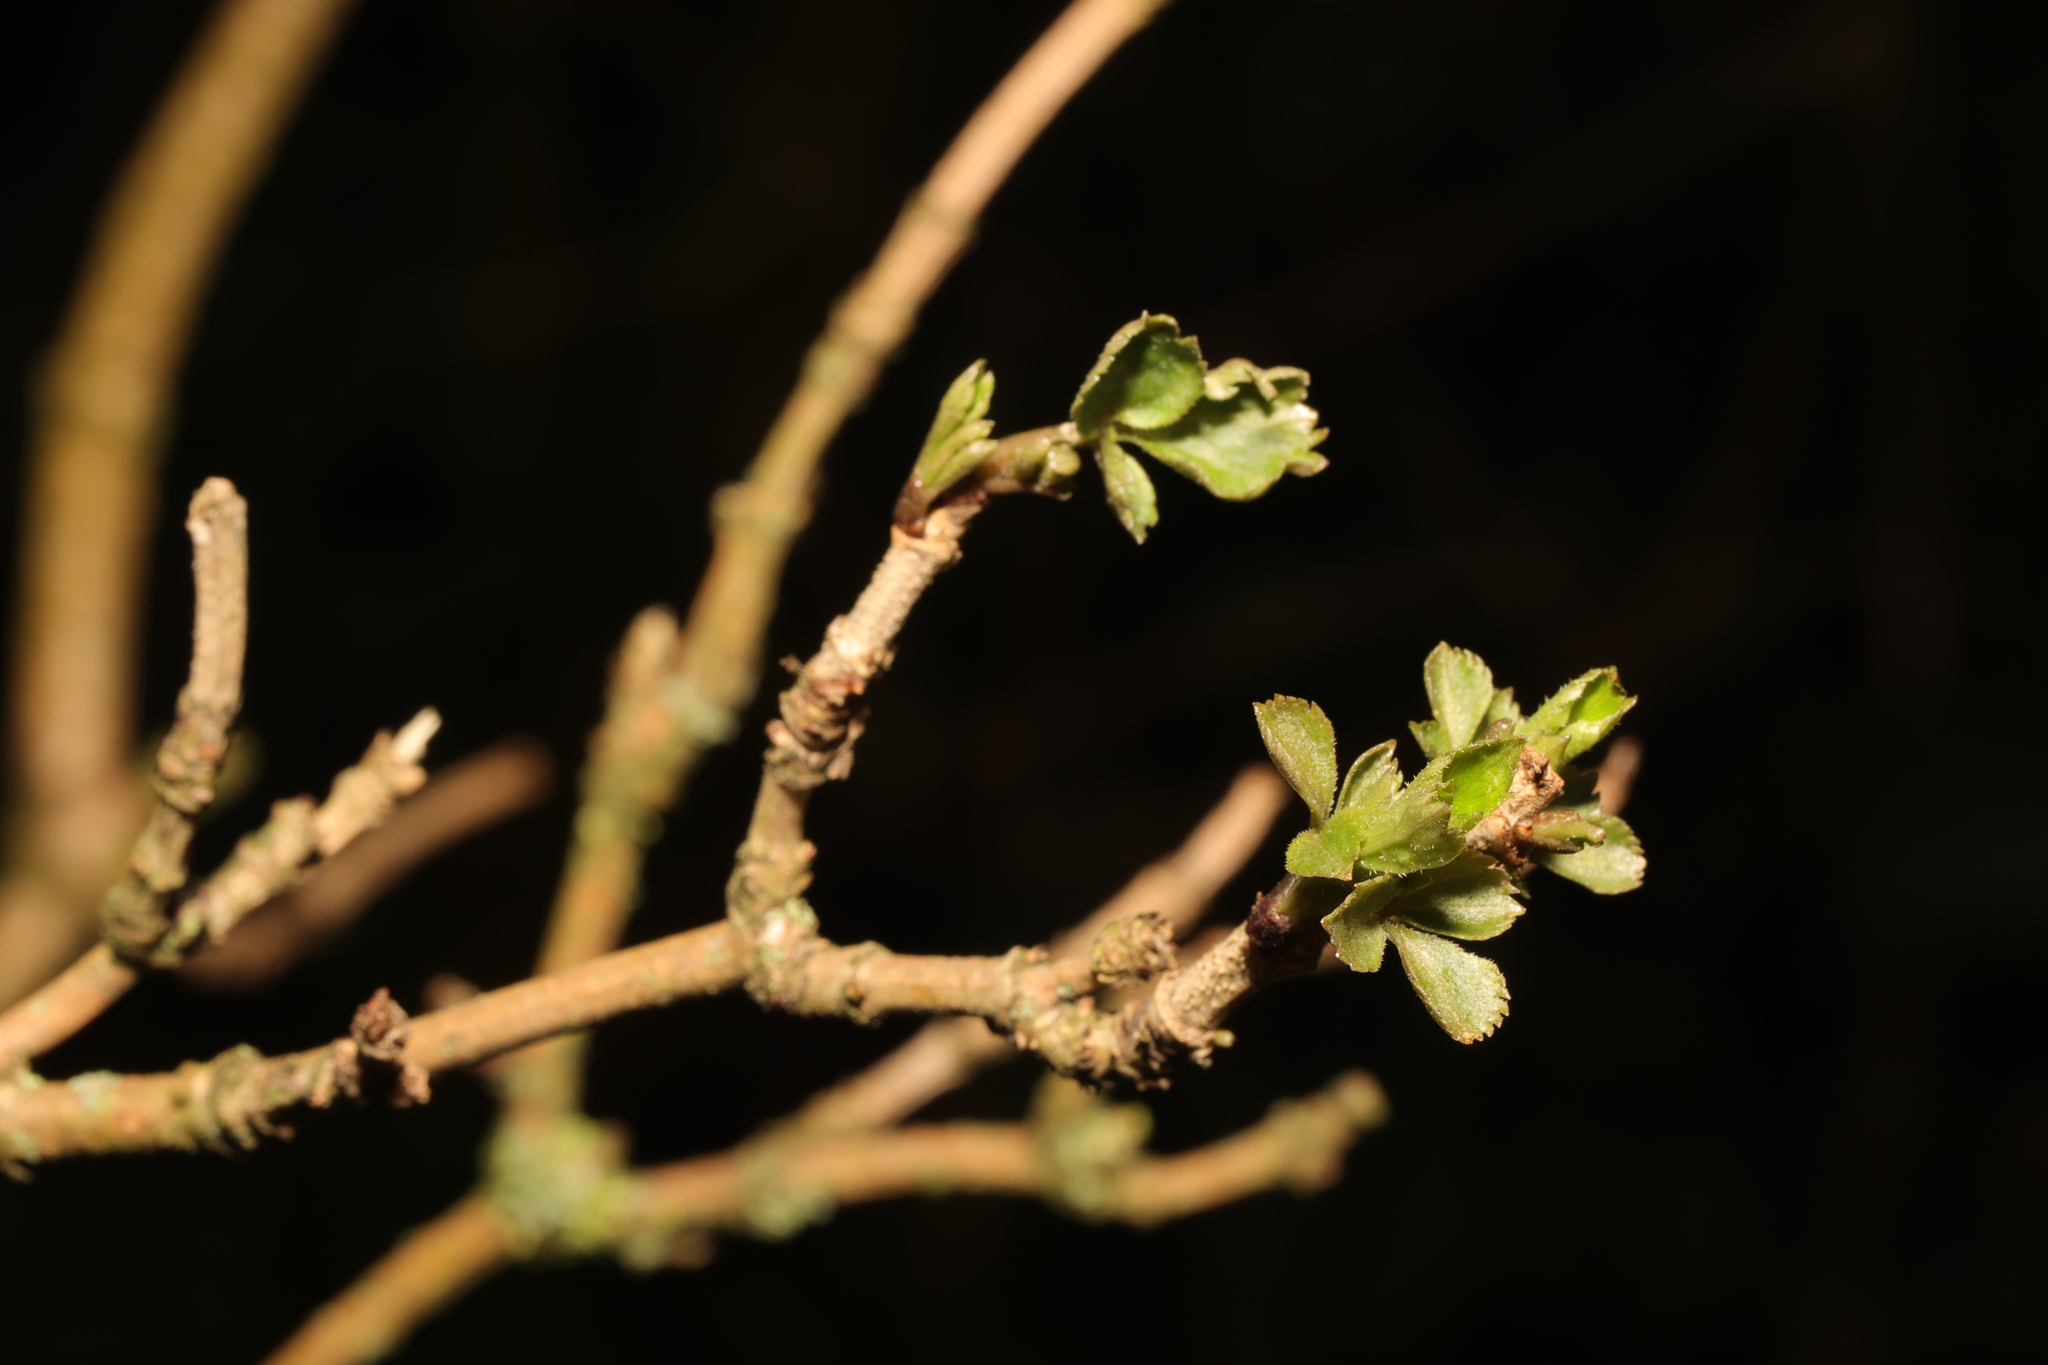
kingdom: Plantae
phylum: Tracheophyta
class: Magnoliopsida
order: Dipsacales
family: Viburnaceae
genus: Sambucus
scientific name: Sambucus nigra
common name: Elder
